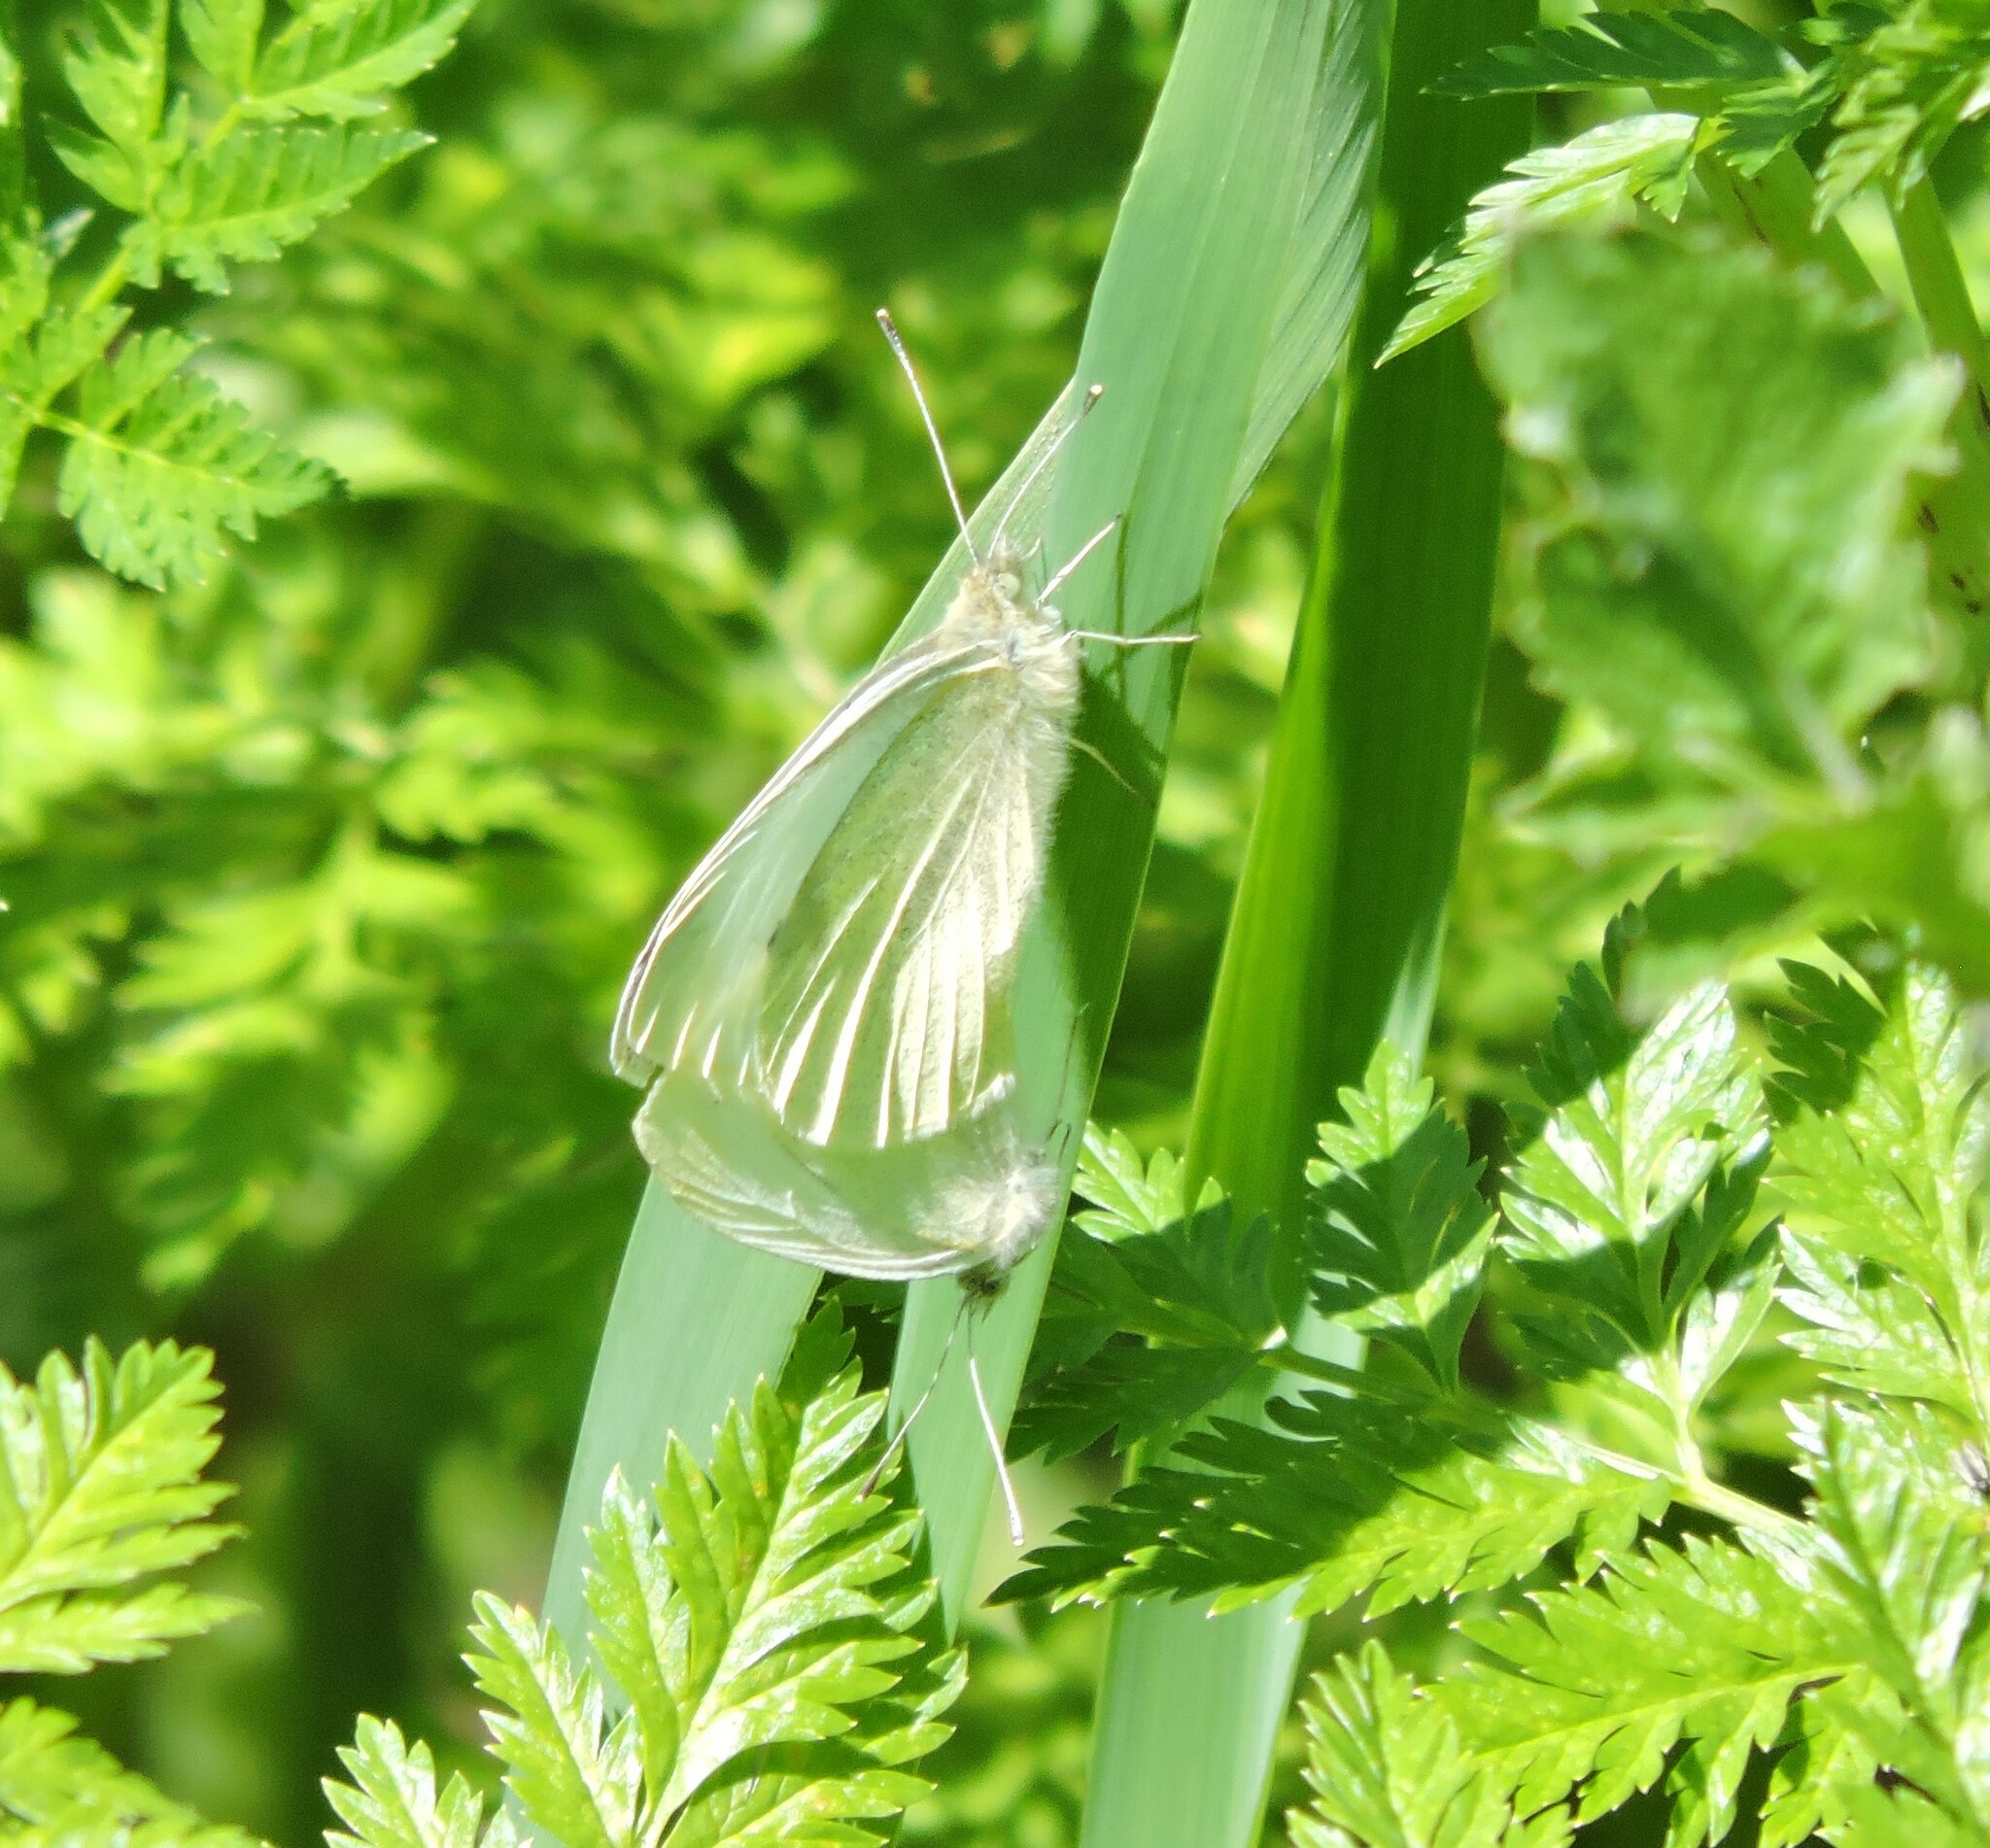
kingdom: Animalia
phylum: Arthropoda
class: Insecta
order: Lepidoptera
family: Pieridae
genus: Pieris
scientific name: Pieris rapae
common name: Small white
